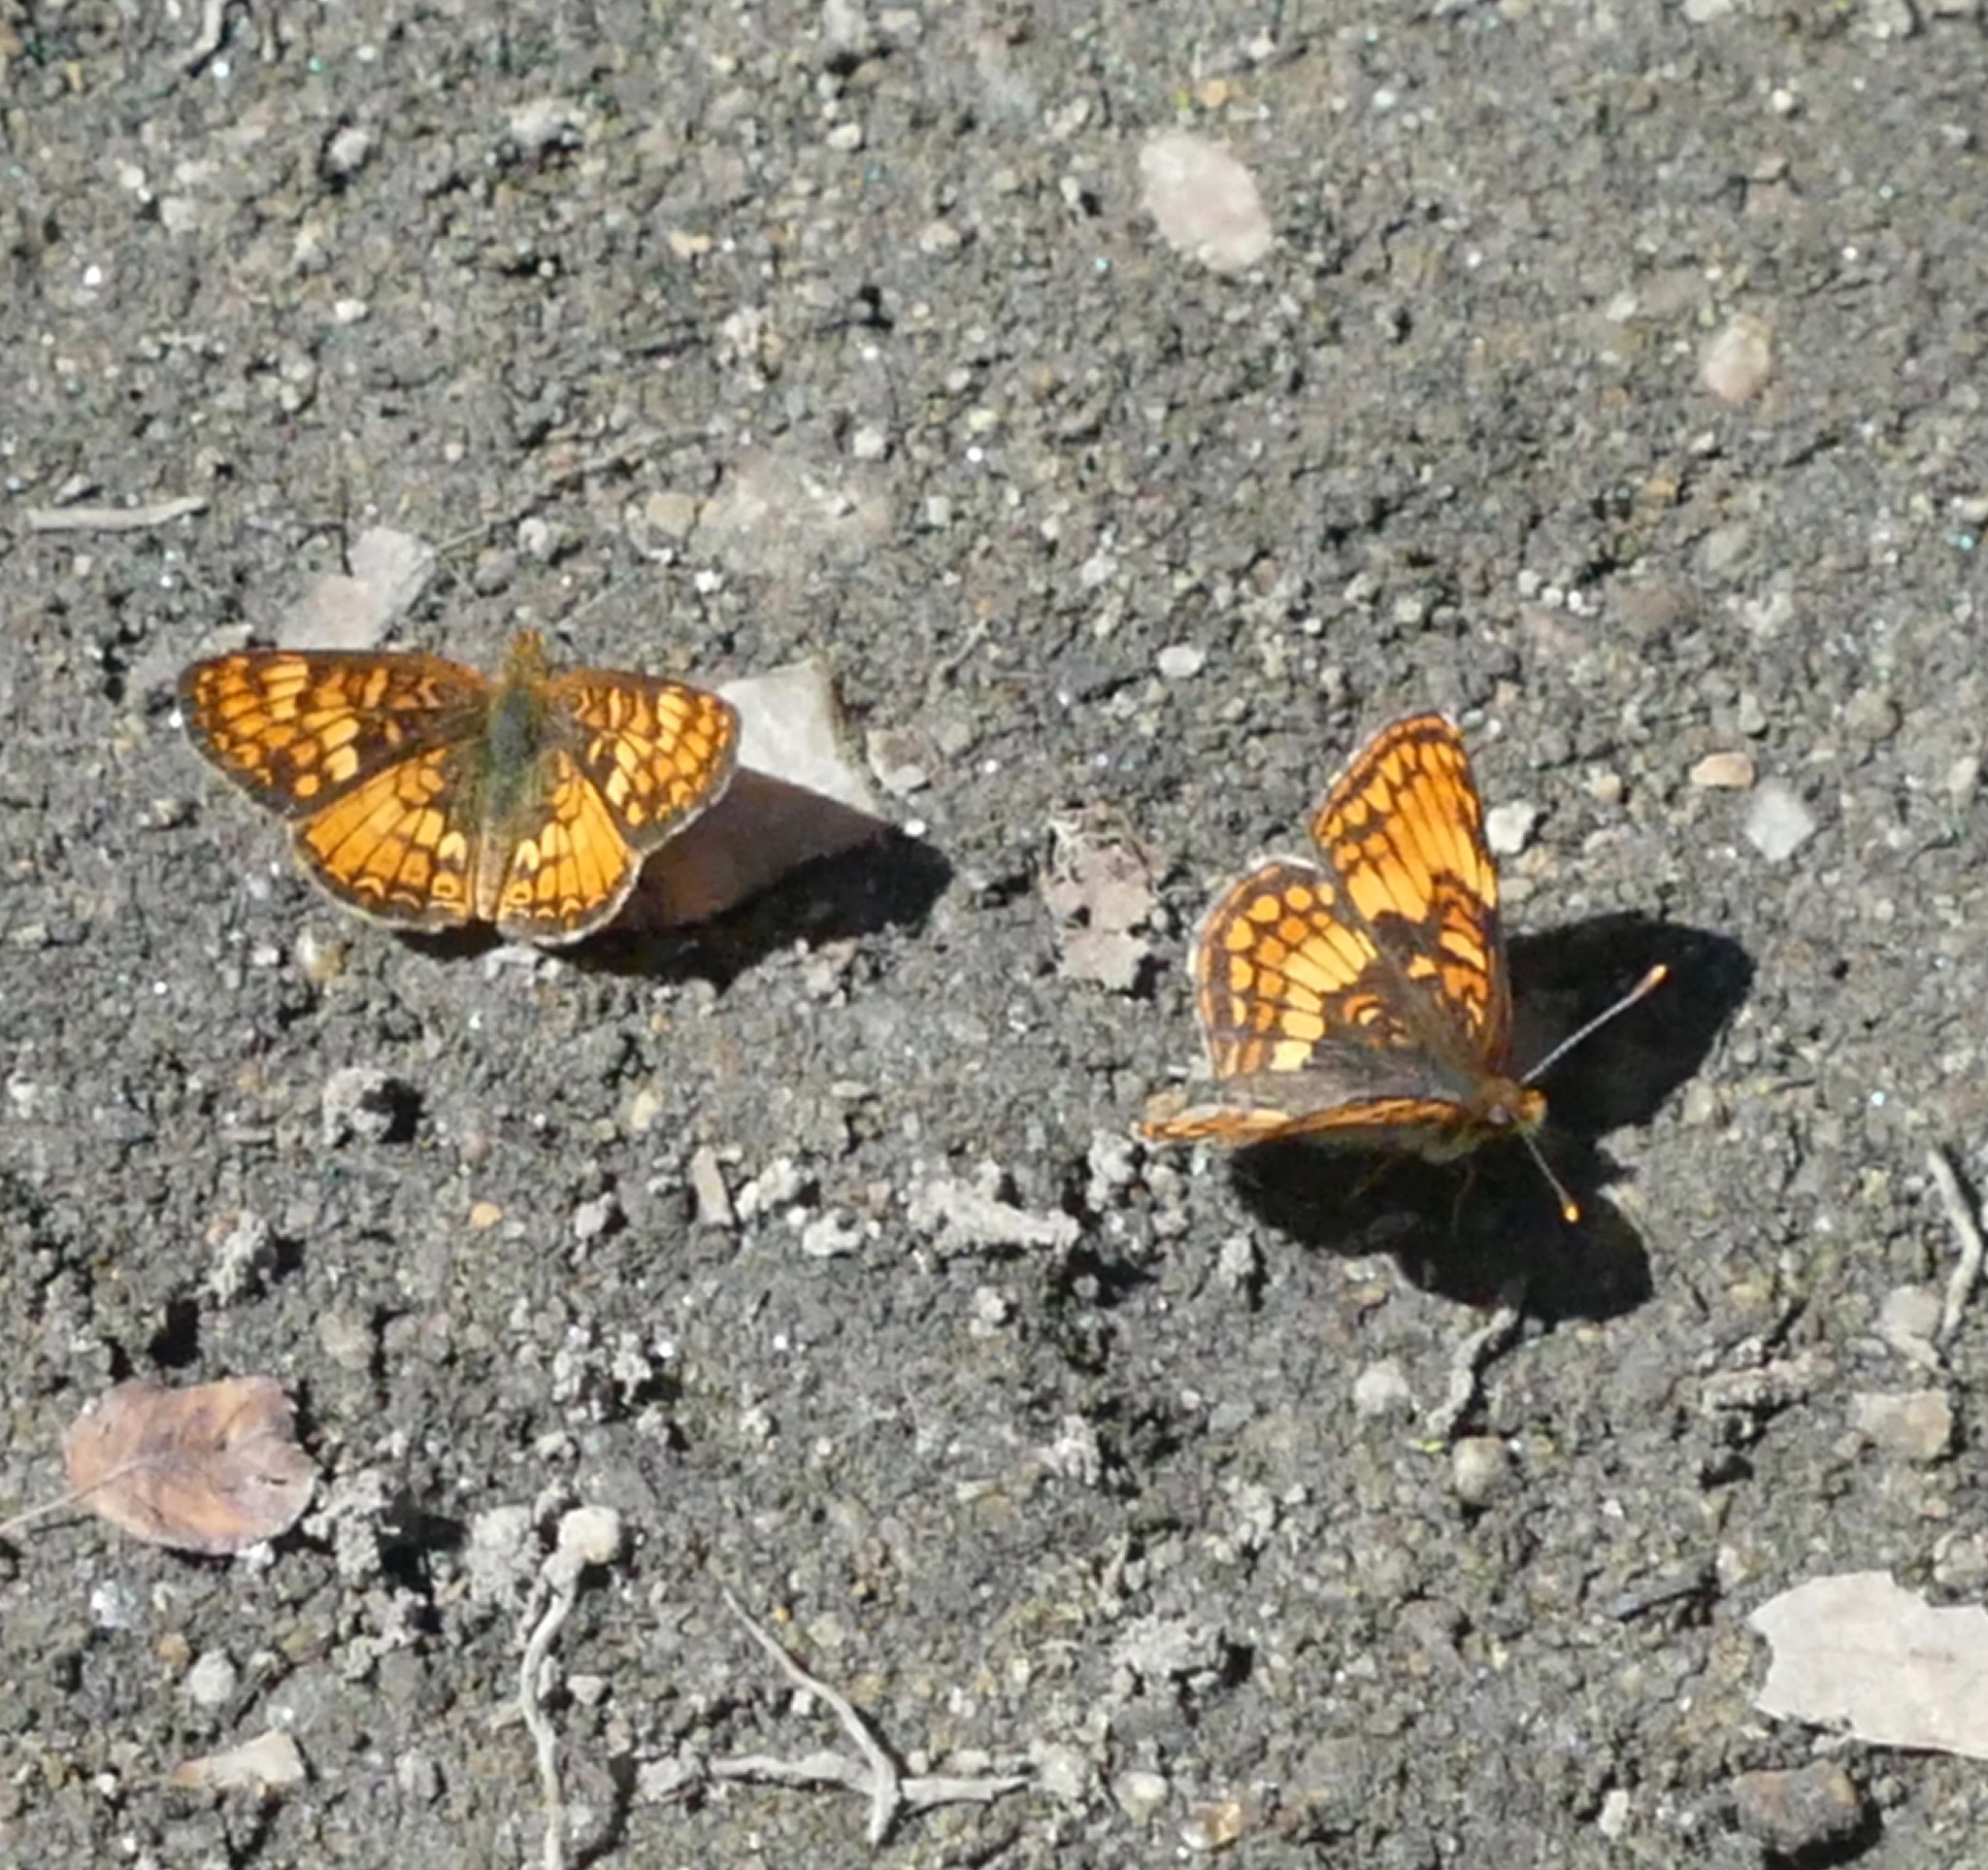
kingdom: Animalia
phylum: Arthropoda
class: Insecta
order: Lepidoptera
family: Nymphalidae
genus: Chlosyne
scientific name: Chlosyne hoffmanni
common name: Hoffmann's checkerspot
